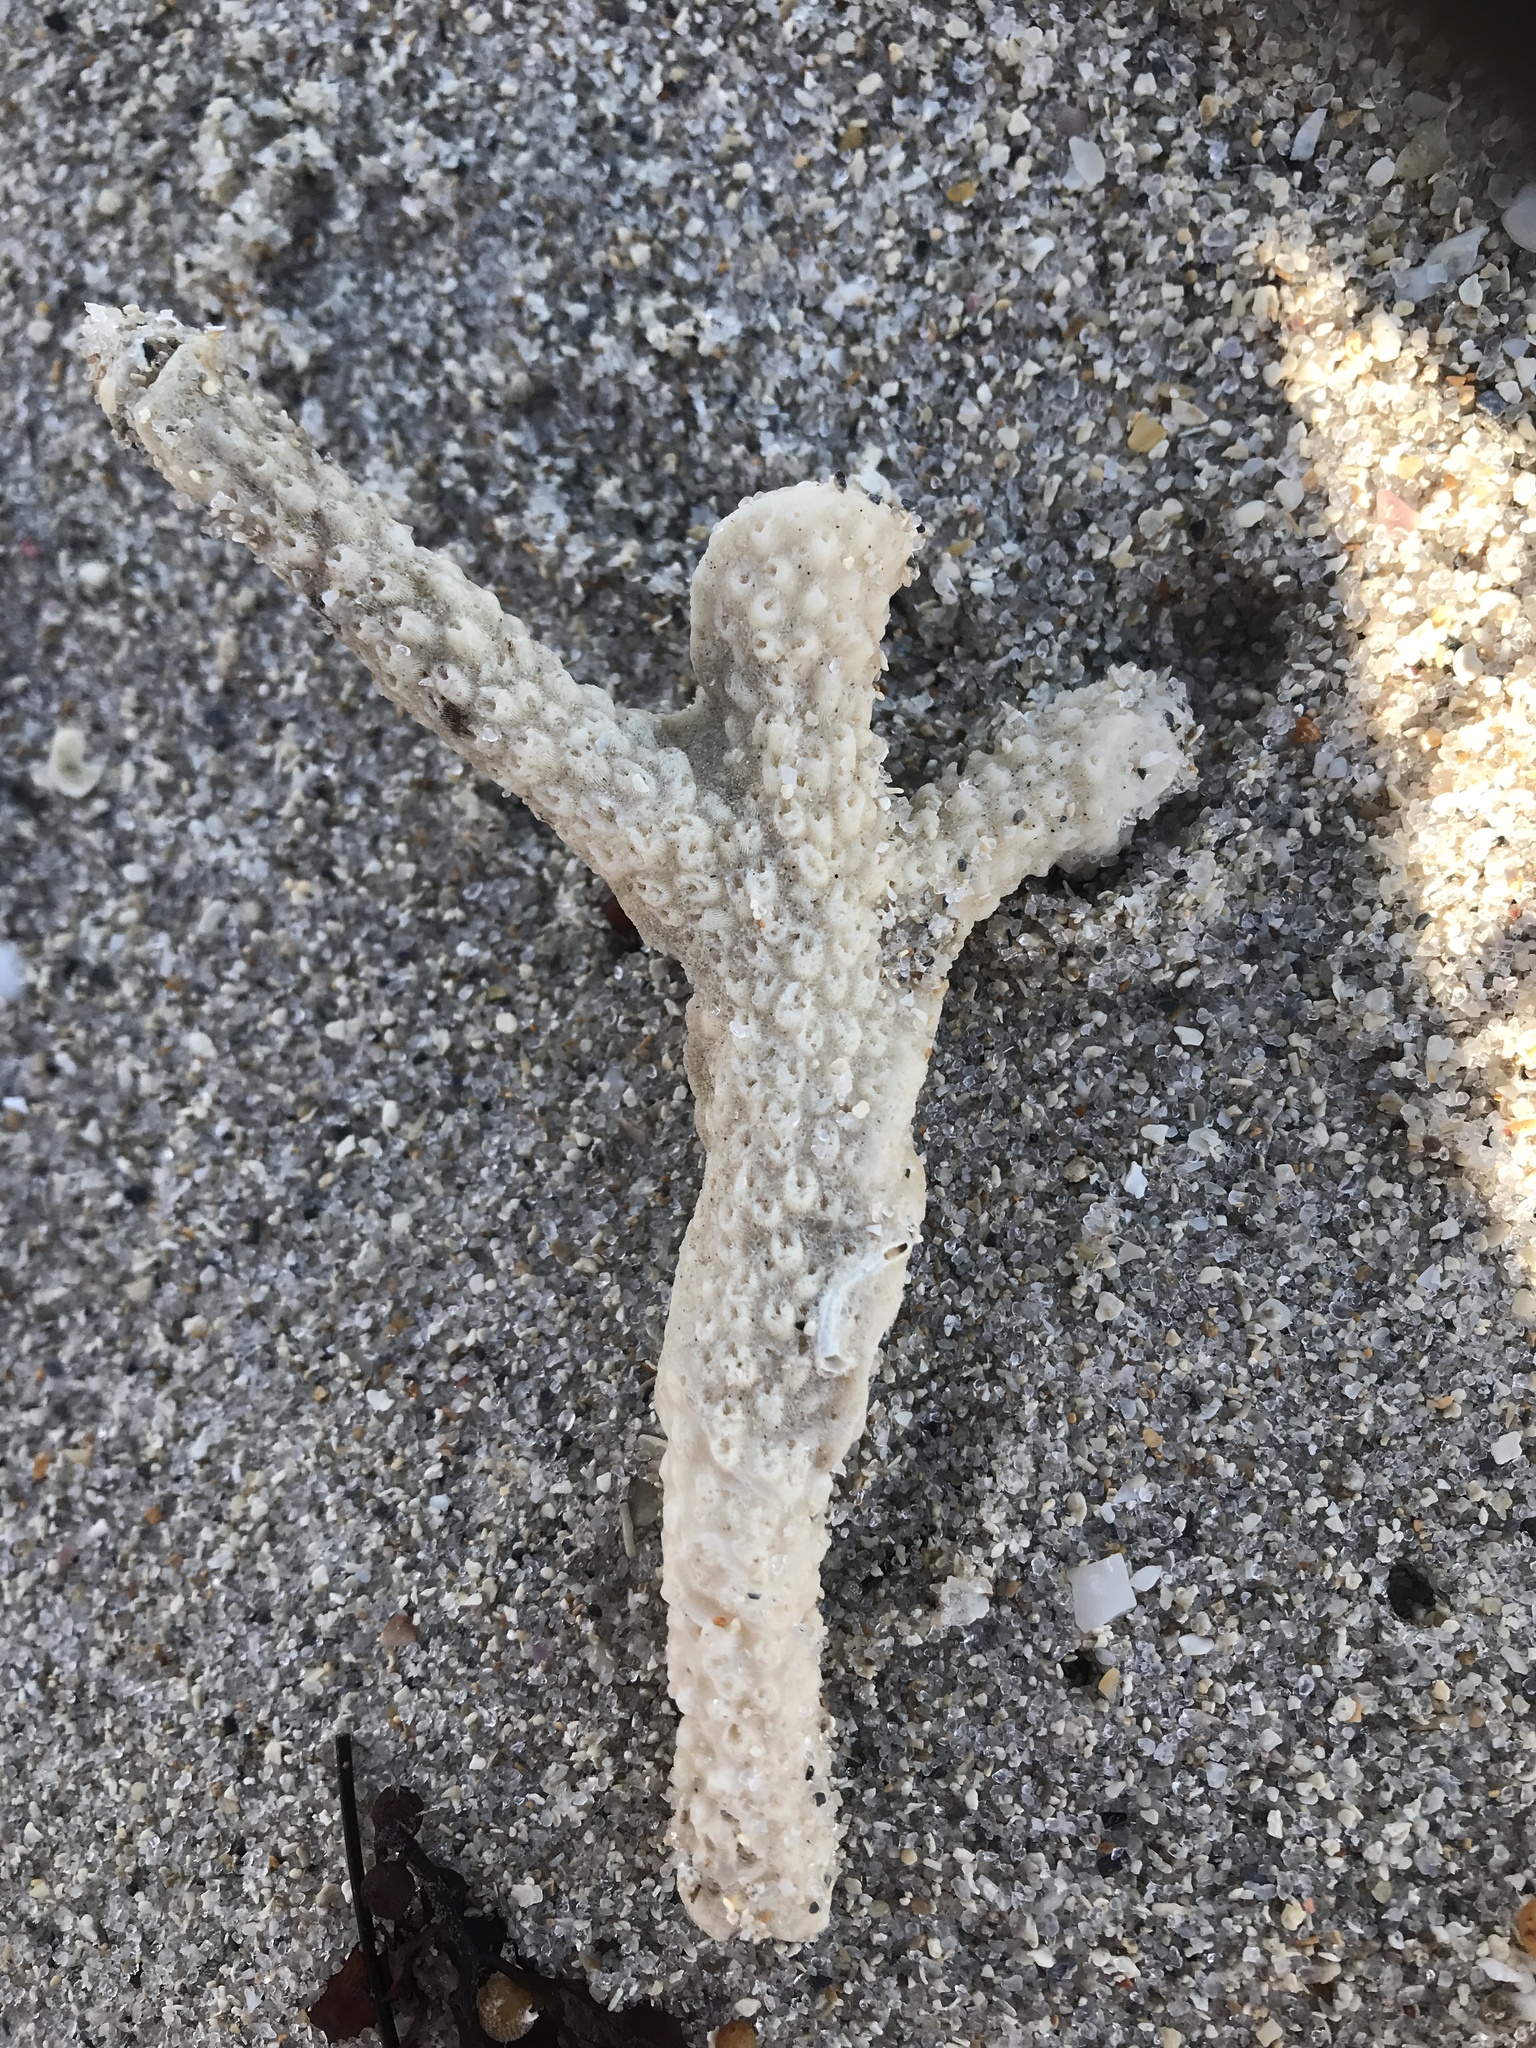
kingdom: Animalia
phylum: Cnidaria
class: Anthozoa
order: Scleractinia
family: Acroporidae
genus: Acropora
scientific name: Acropora cervicornis
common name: Staghorn coral
